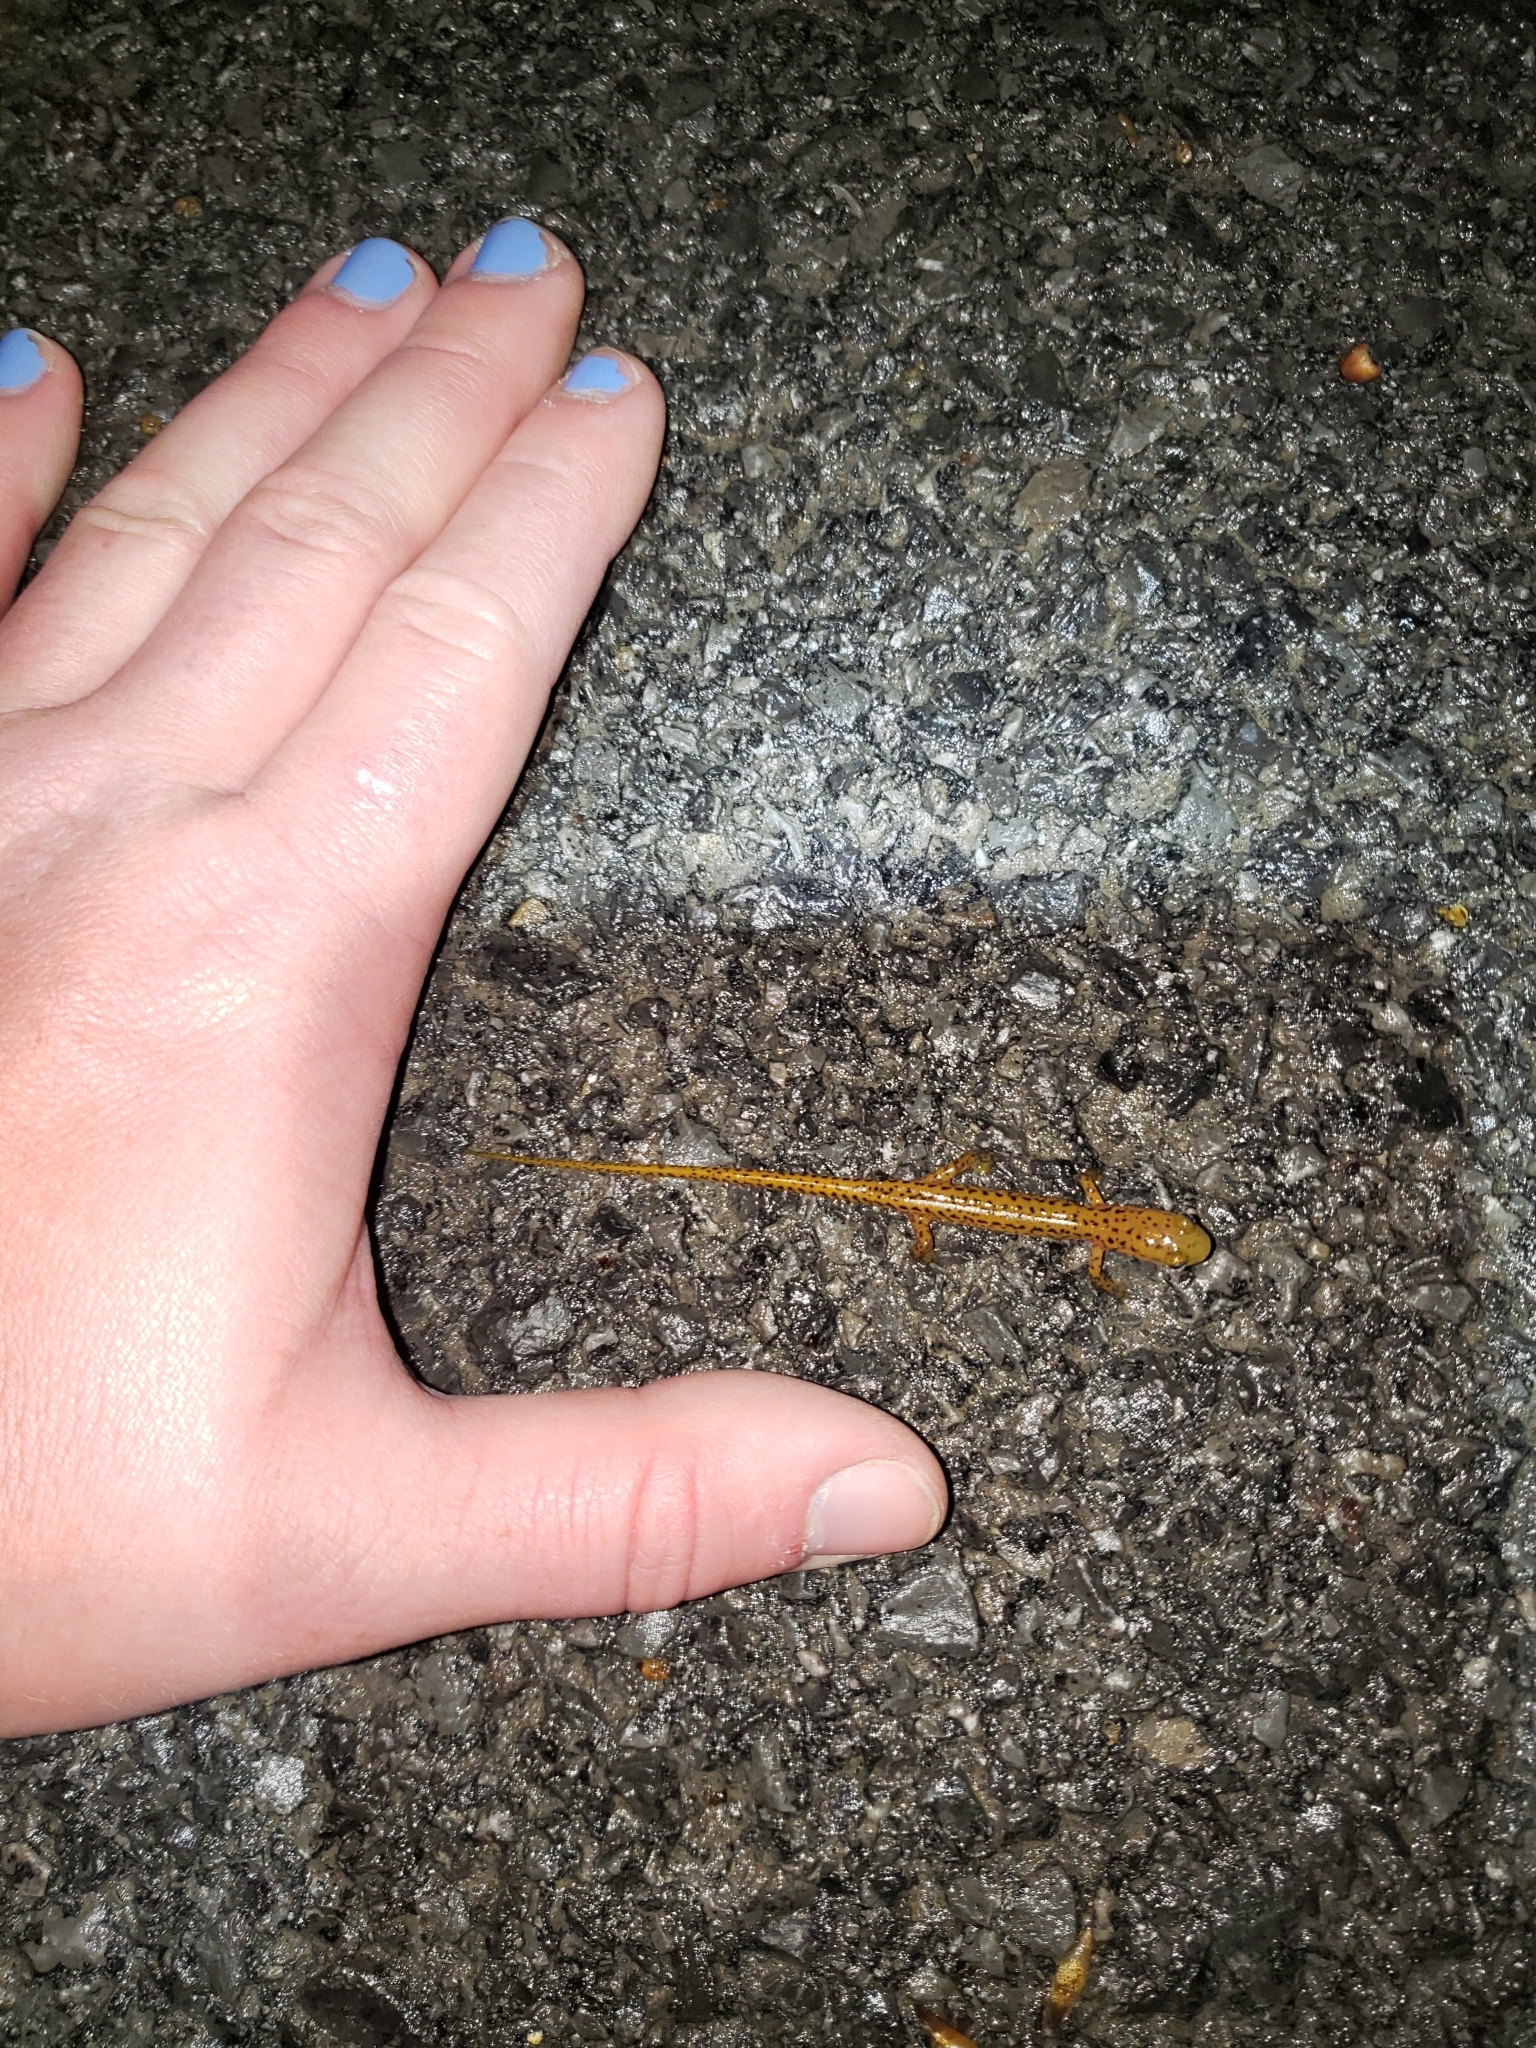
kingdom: Animalia
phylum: Chordata
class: Amphibia
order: Caudata
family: Plethodontidae
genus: Eurycea
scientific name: Eurycea longicauda
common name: Long-tailed salamander
